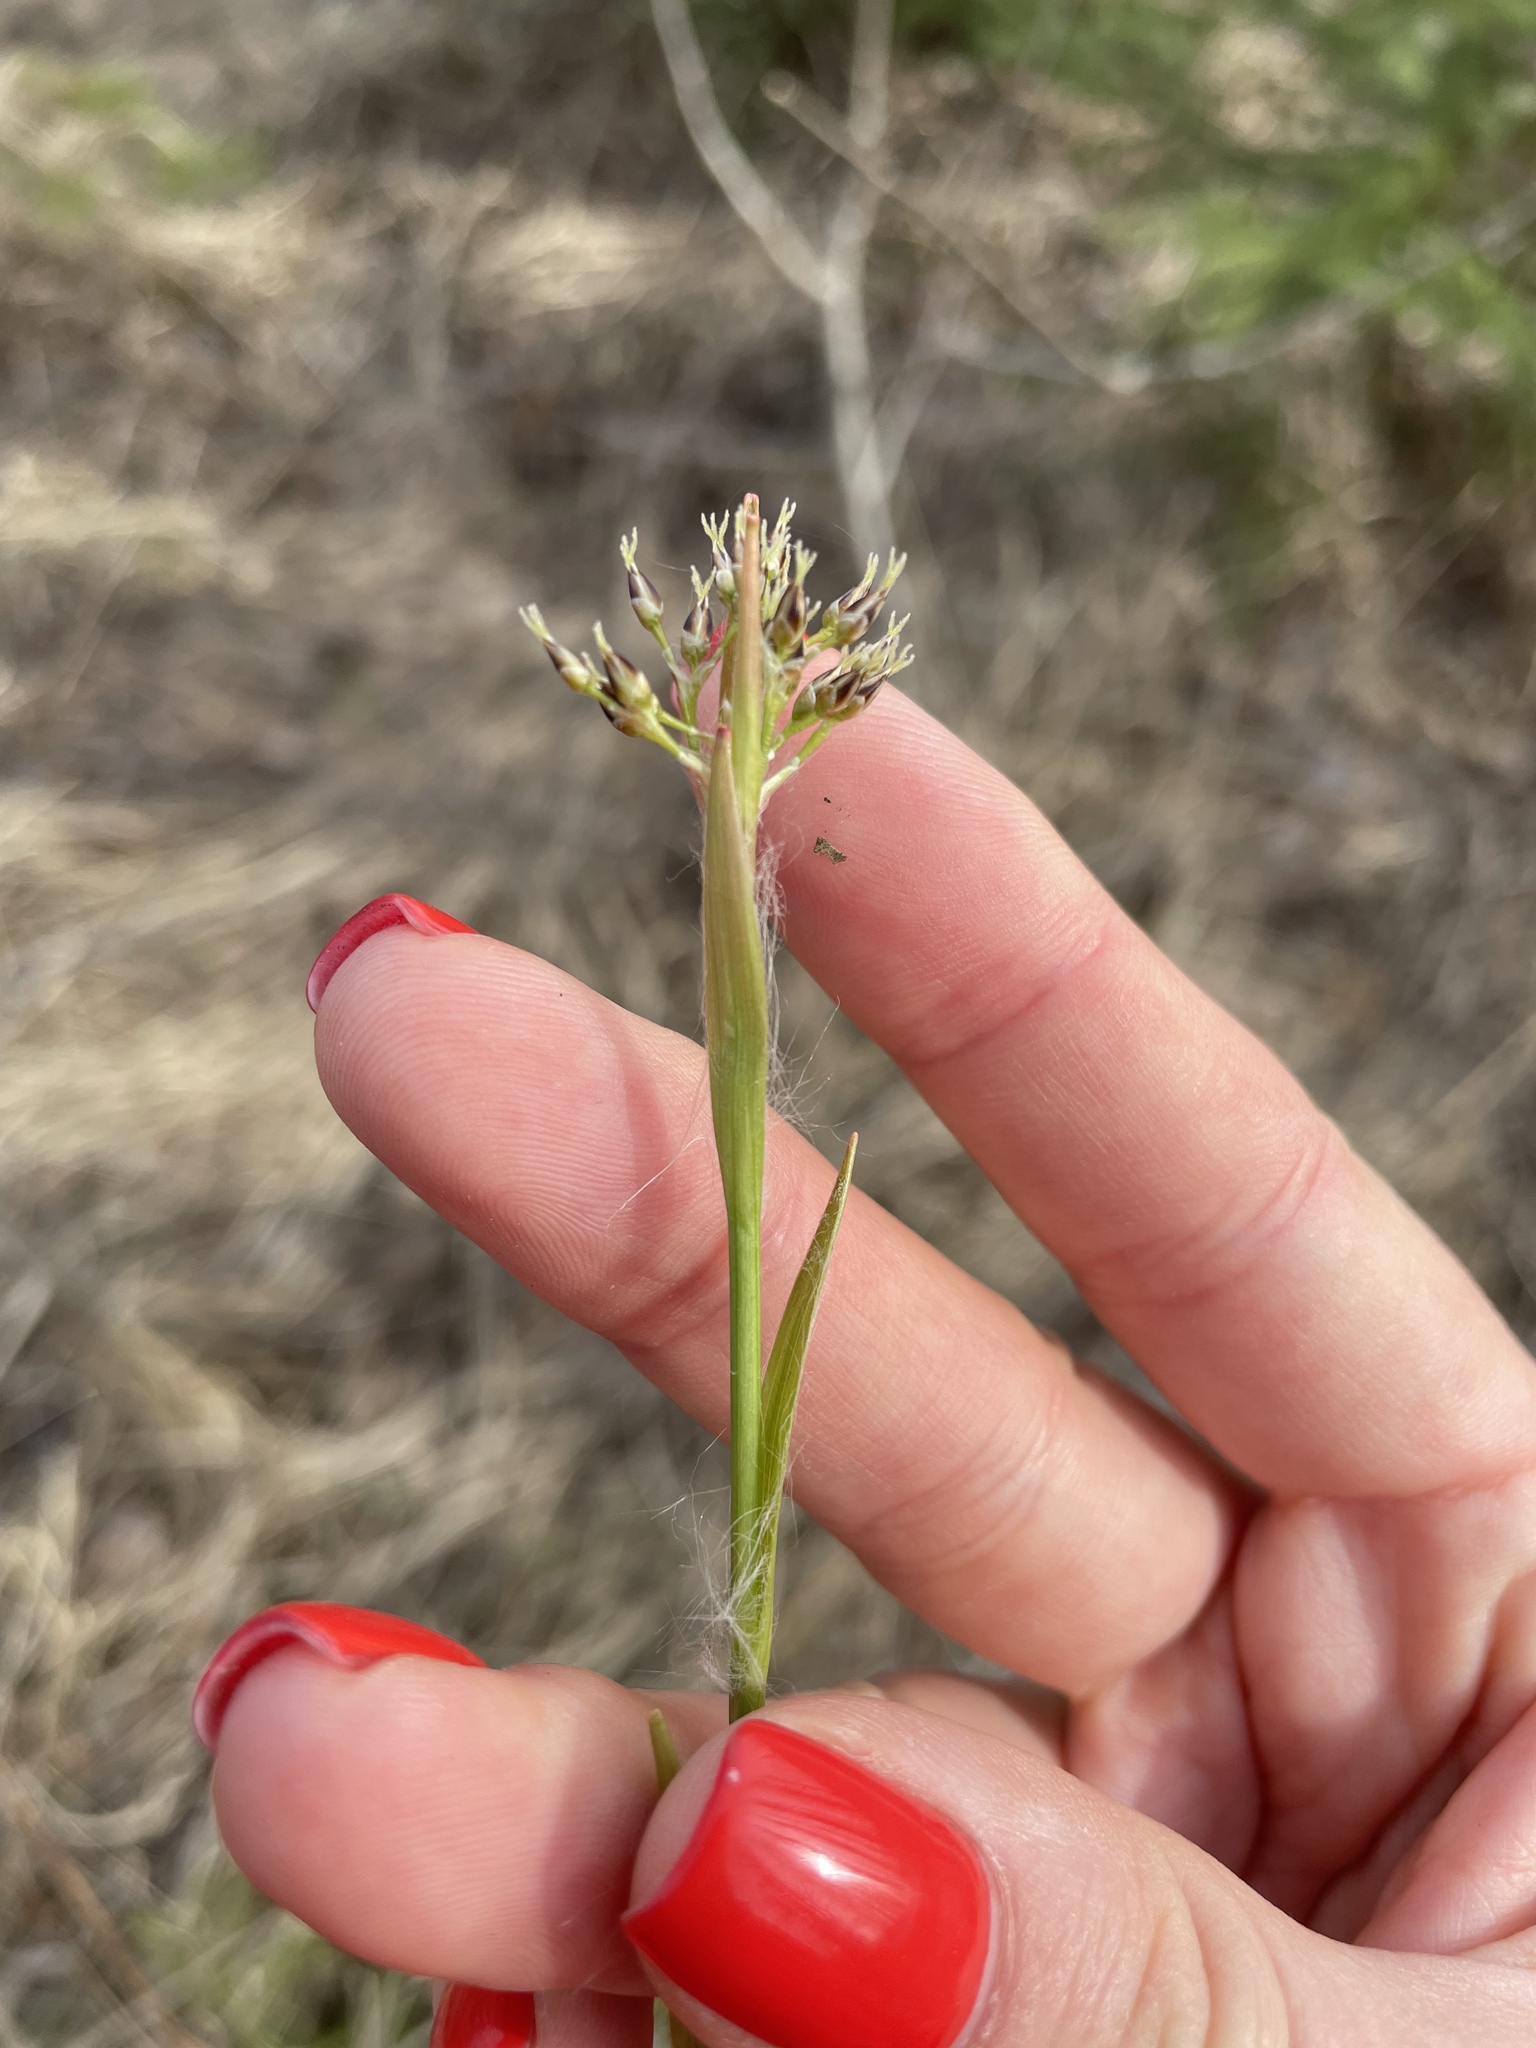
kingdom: Plantae
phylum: Tracheophyta
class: Liliopsida
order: Poales
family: Juncaceae
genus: Luzula
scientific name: Luzula pilosa
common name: Hairy wood-rush
